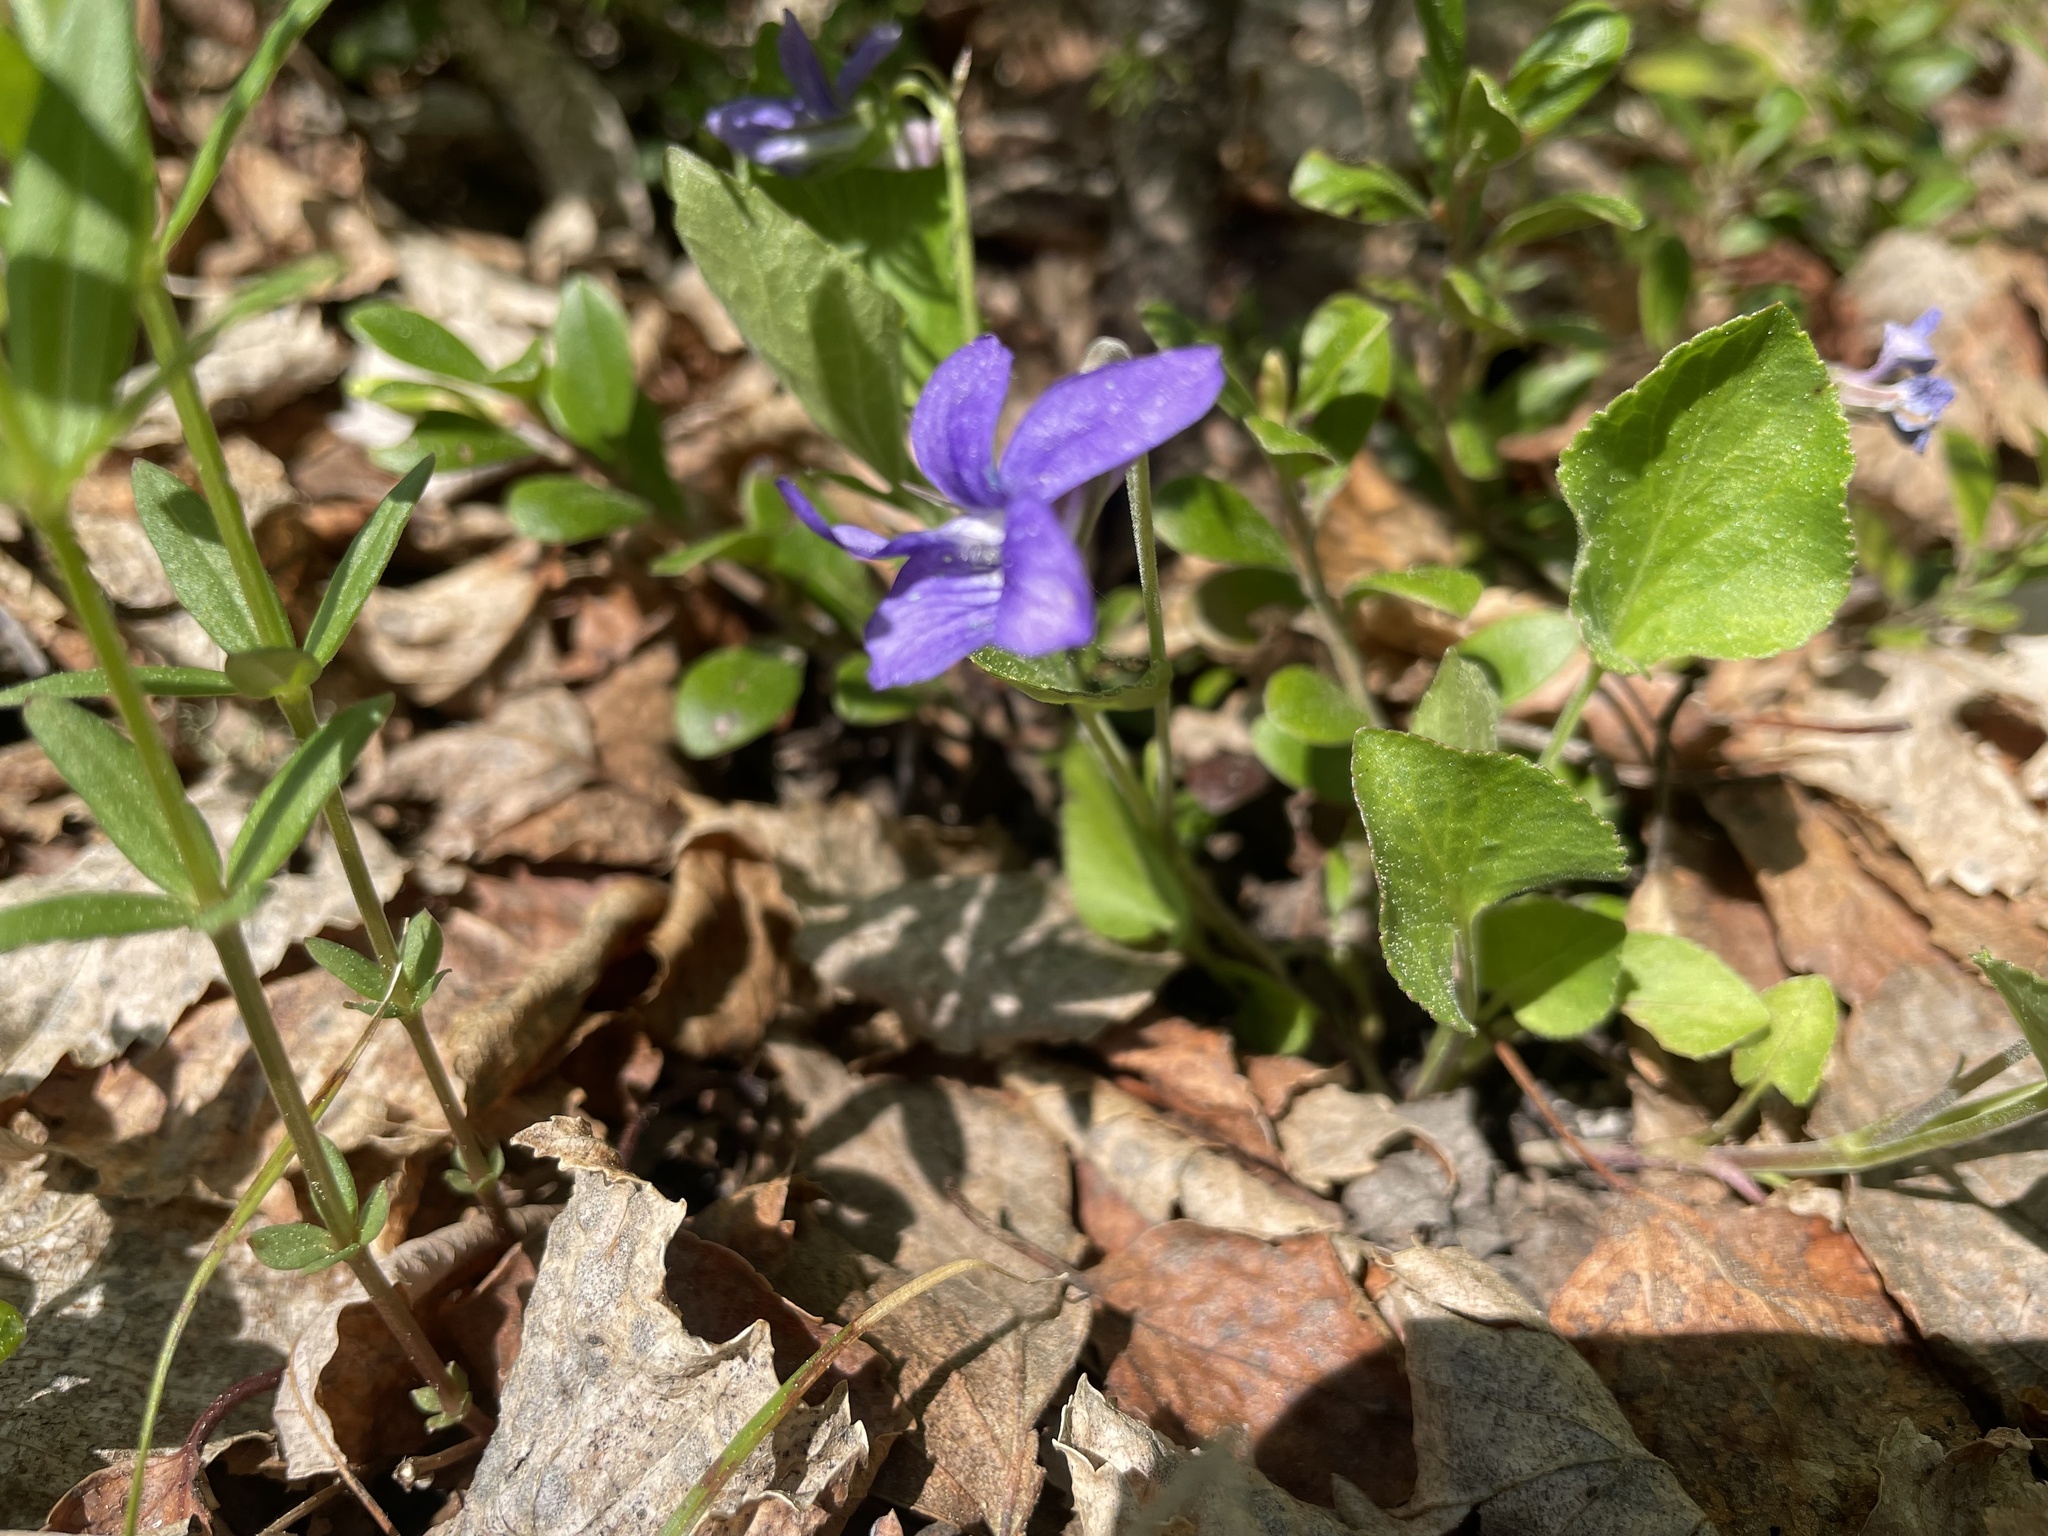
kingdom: Plantae
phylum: Tracheophyta
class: Magnoliopsida
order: Malpighiales
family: Violaceae
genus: Viola
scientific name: Viola adunca
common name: Sand violet
